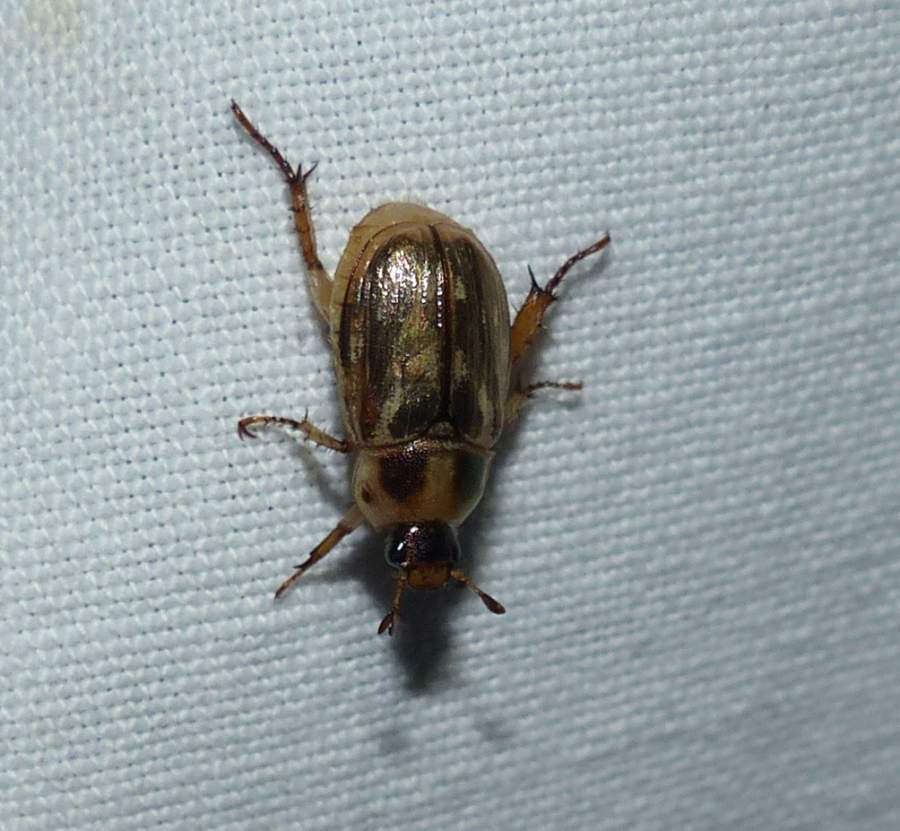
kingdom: Animalia
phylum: Arthropoda
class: Insecta
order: Coleoptera
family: Scarabaeidae
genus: Exomala
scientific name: Exomala orientalis
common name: Oriental beetle
